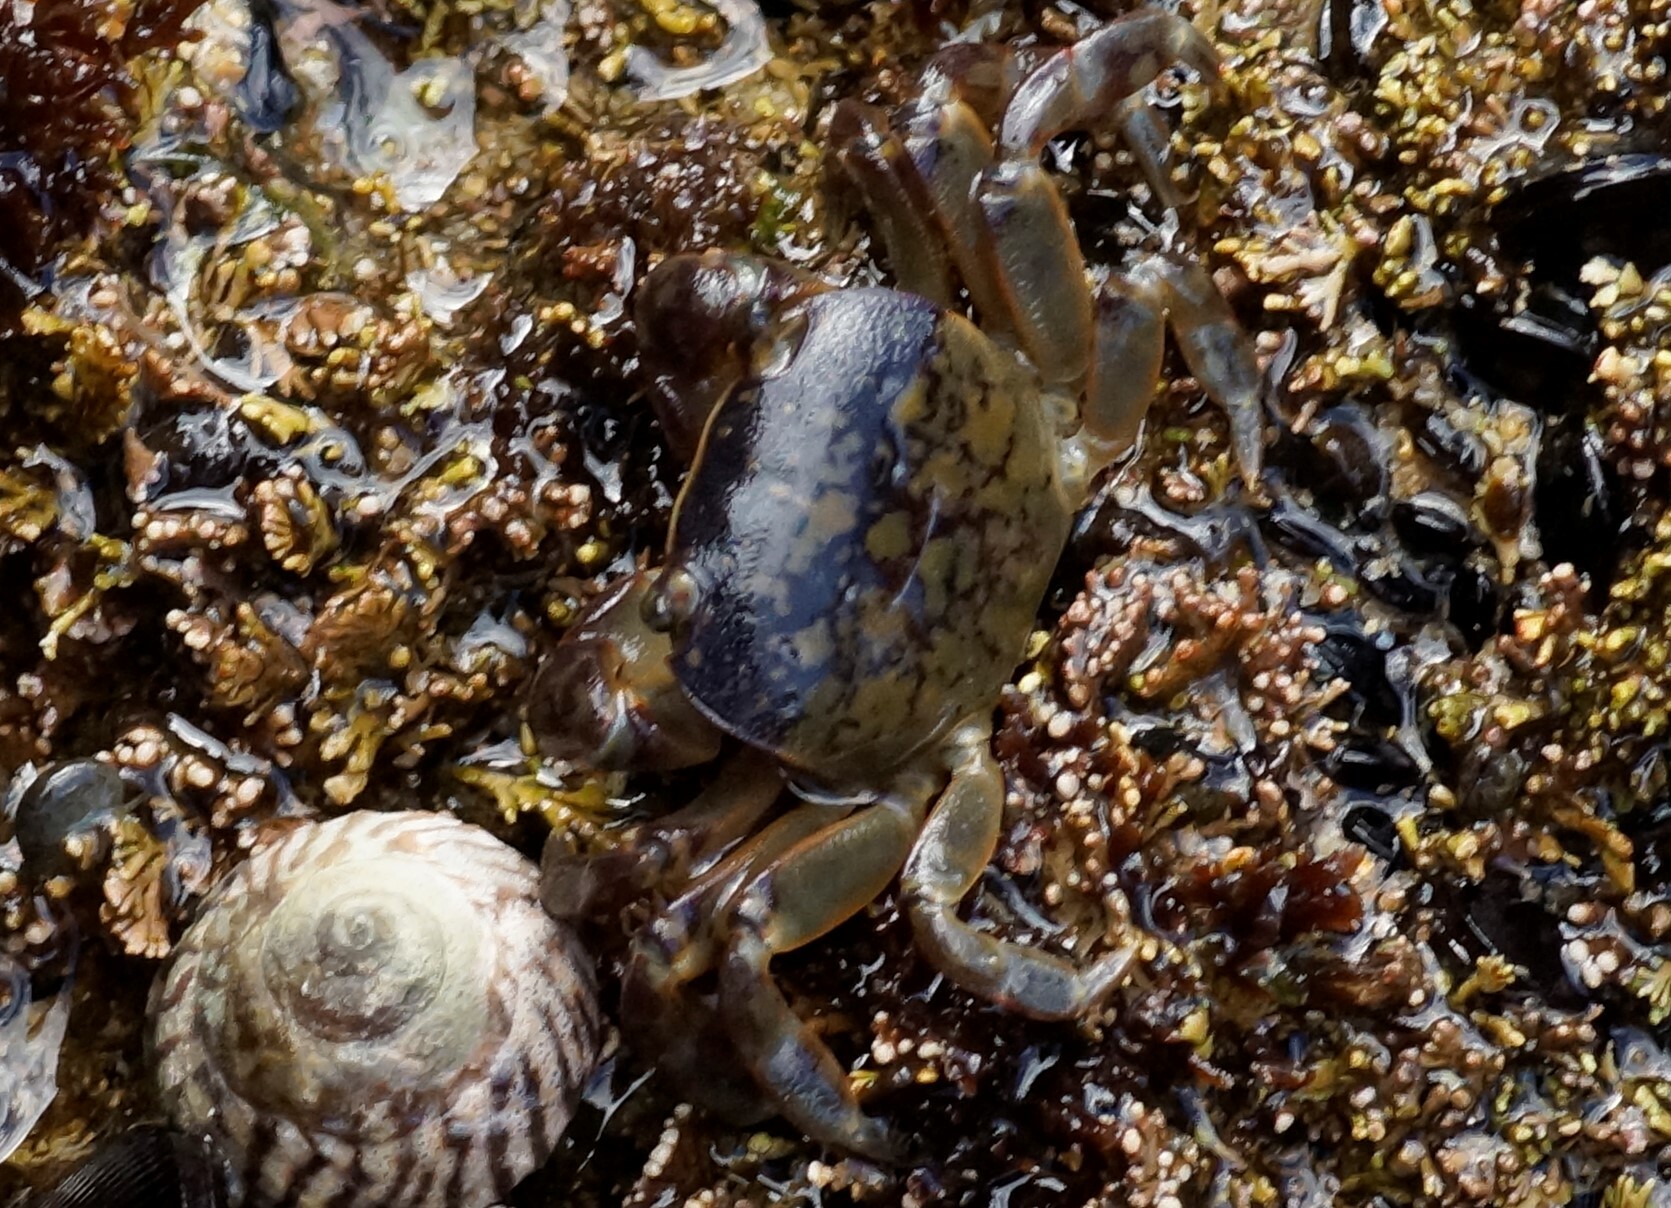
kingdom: Animalia
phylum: Arthropoda
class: Malacostraca
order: Decapoda
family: Varunidae
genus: Cyclograpsus
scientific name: Cyclograpsus granulosus
